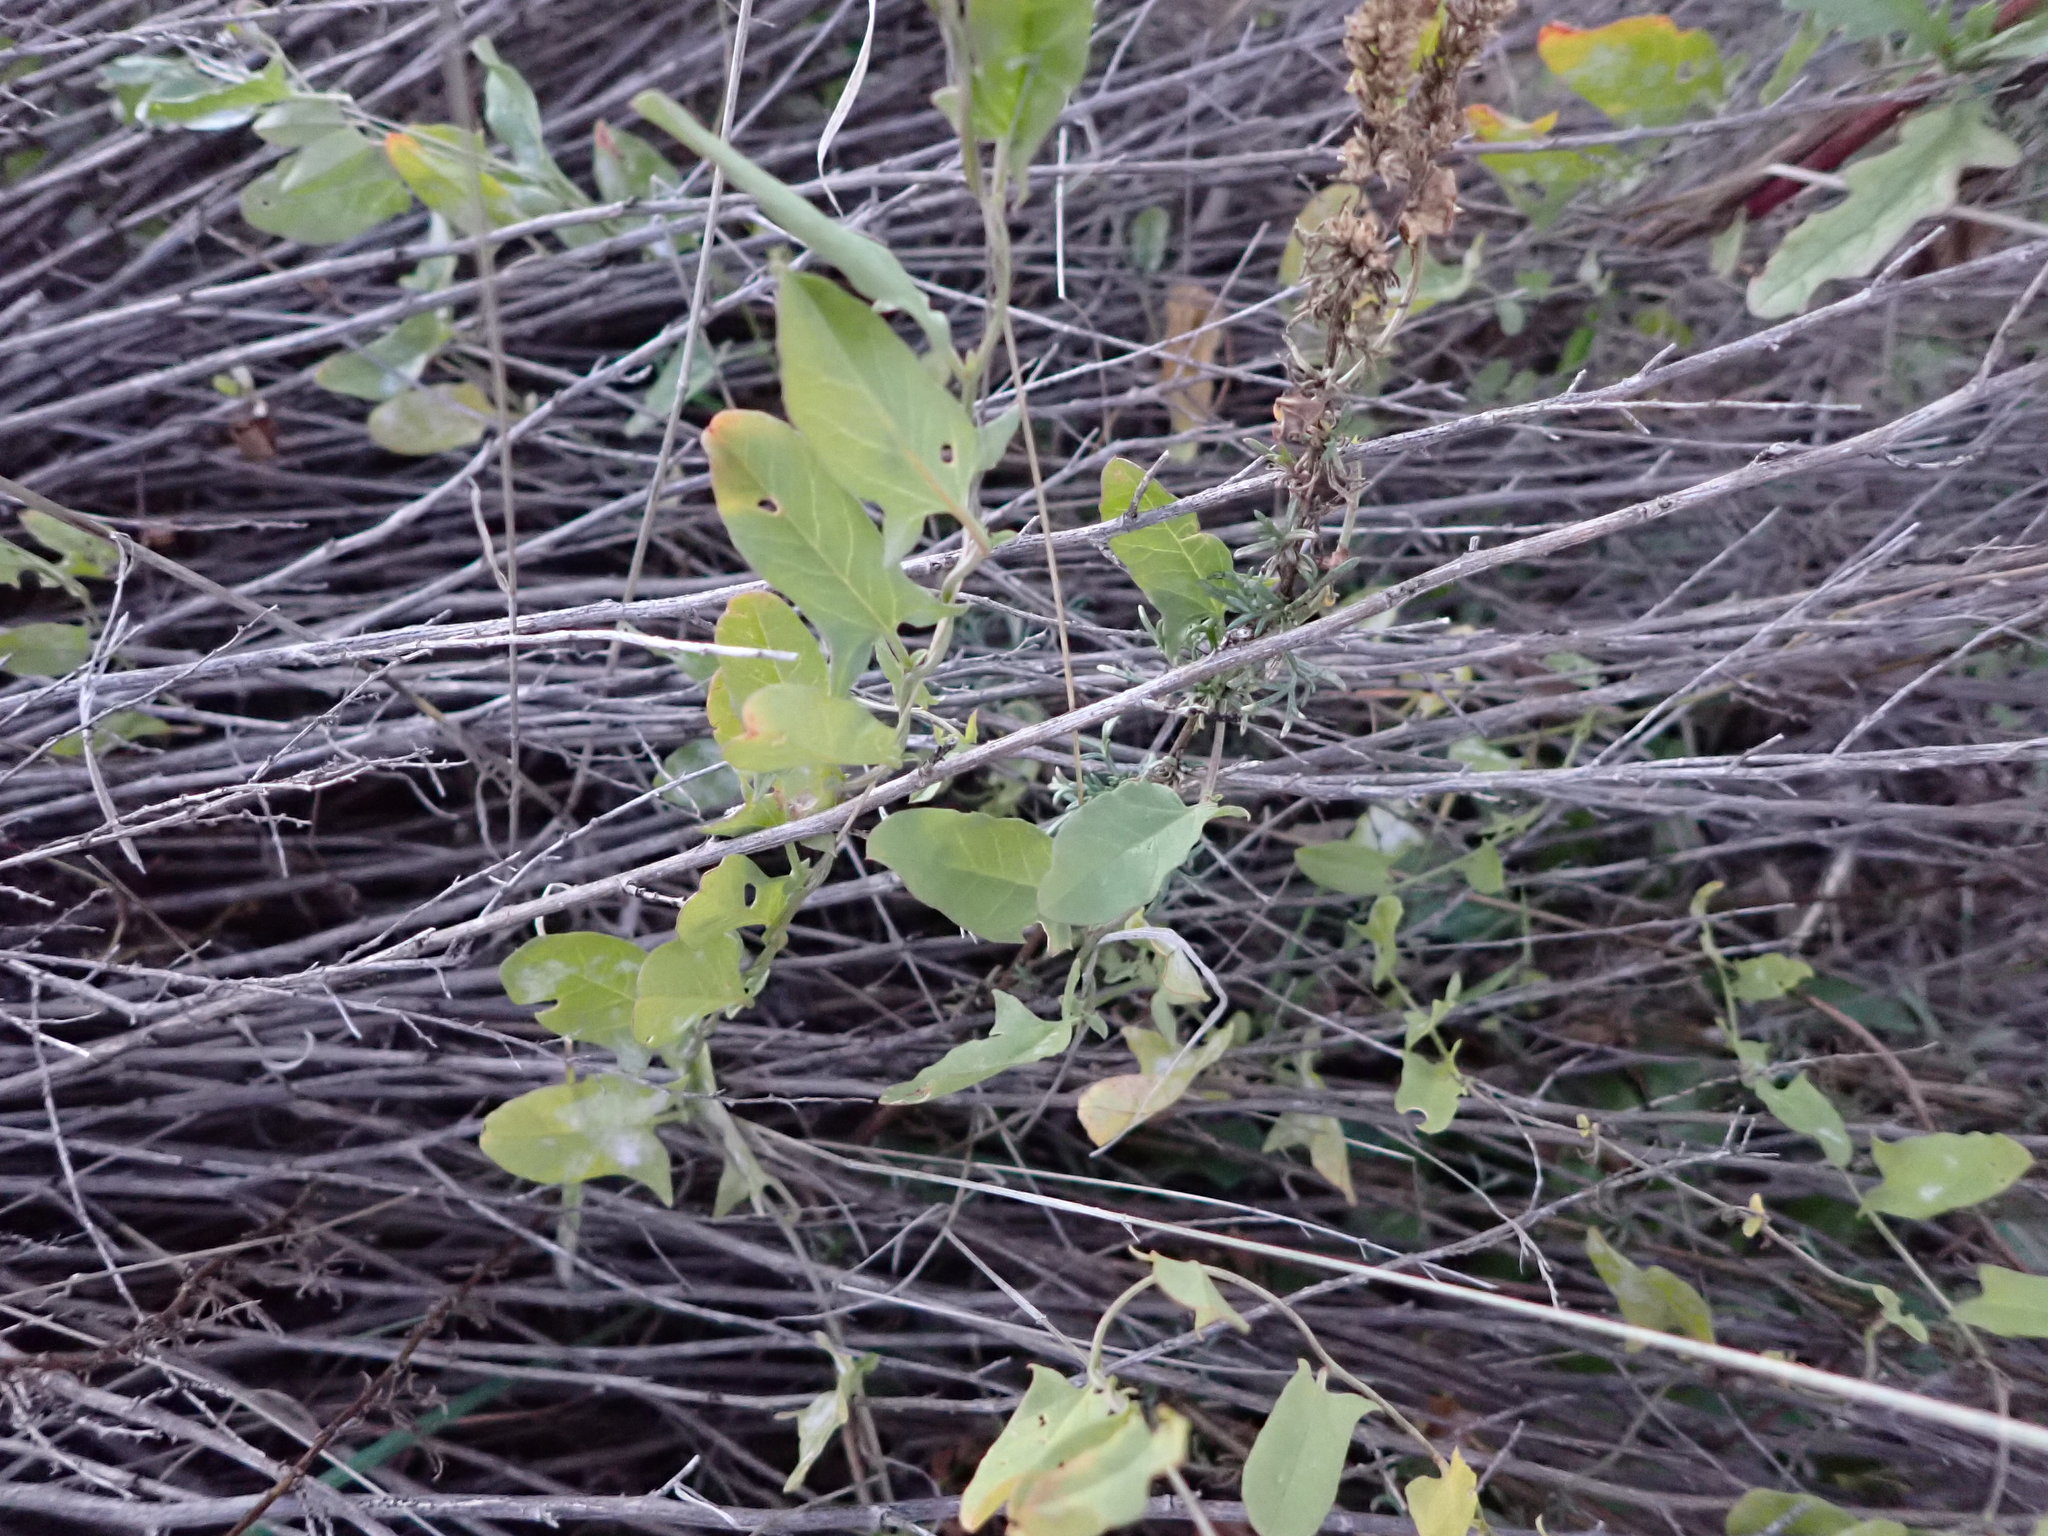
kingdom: Plantae
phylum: Tracheophyta
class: Magnoliopsida
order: Solanales
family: Convolvulaceae
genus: Convolvulus
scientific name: Convolvulus arvensis
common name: Field bindweed
